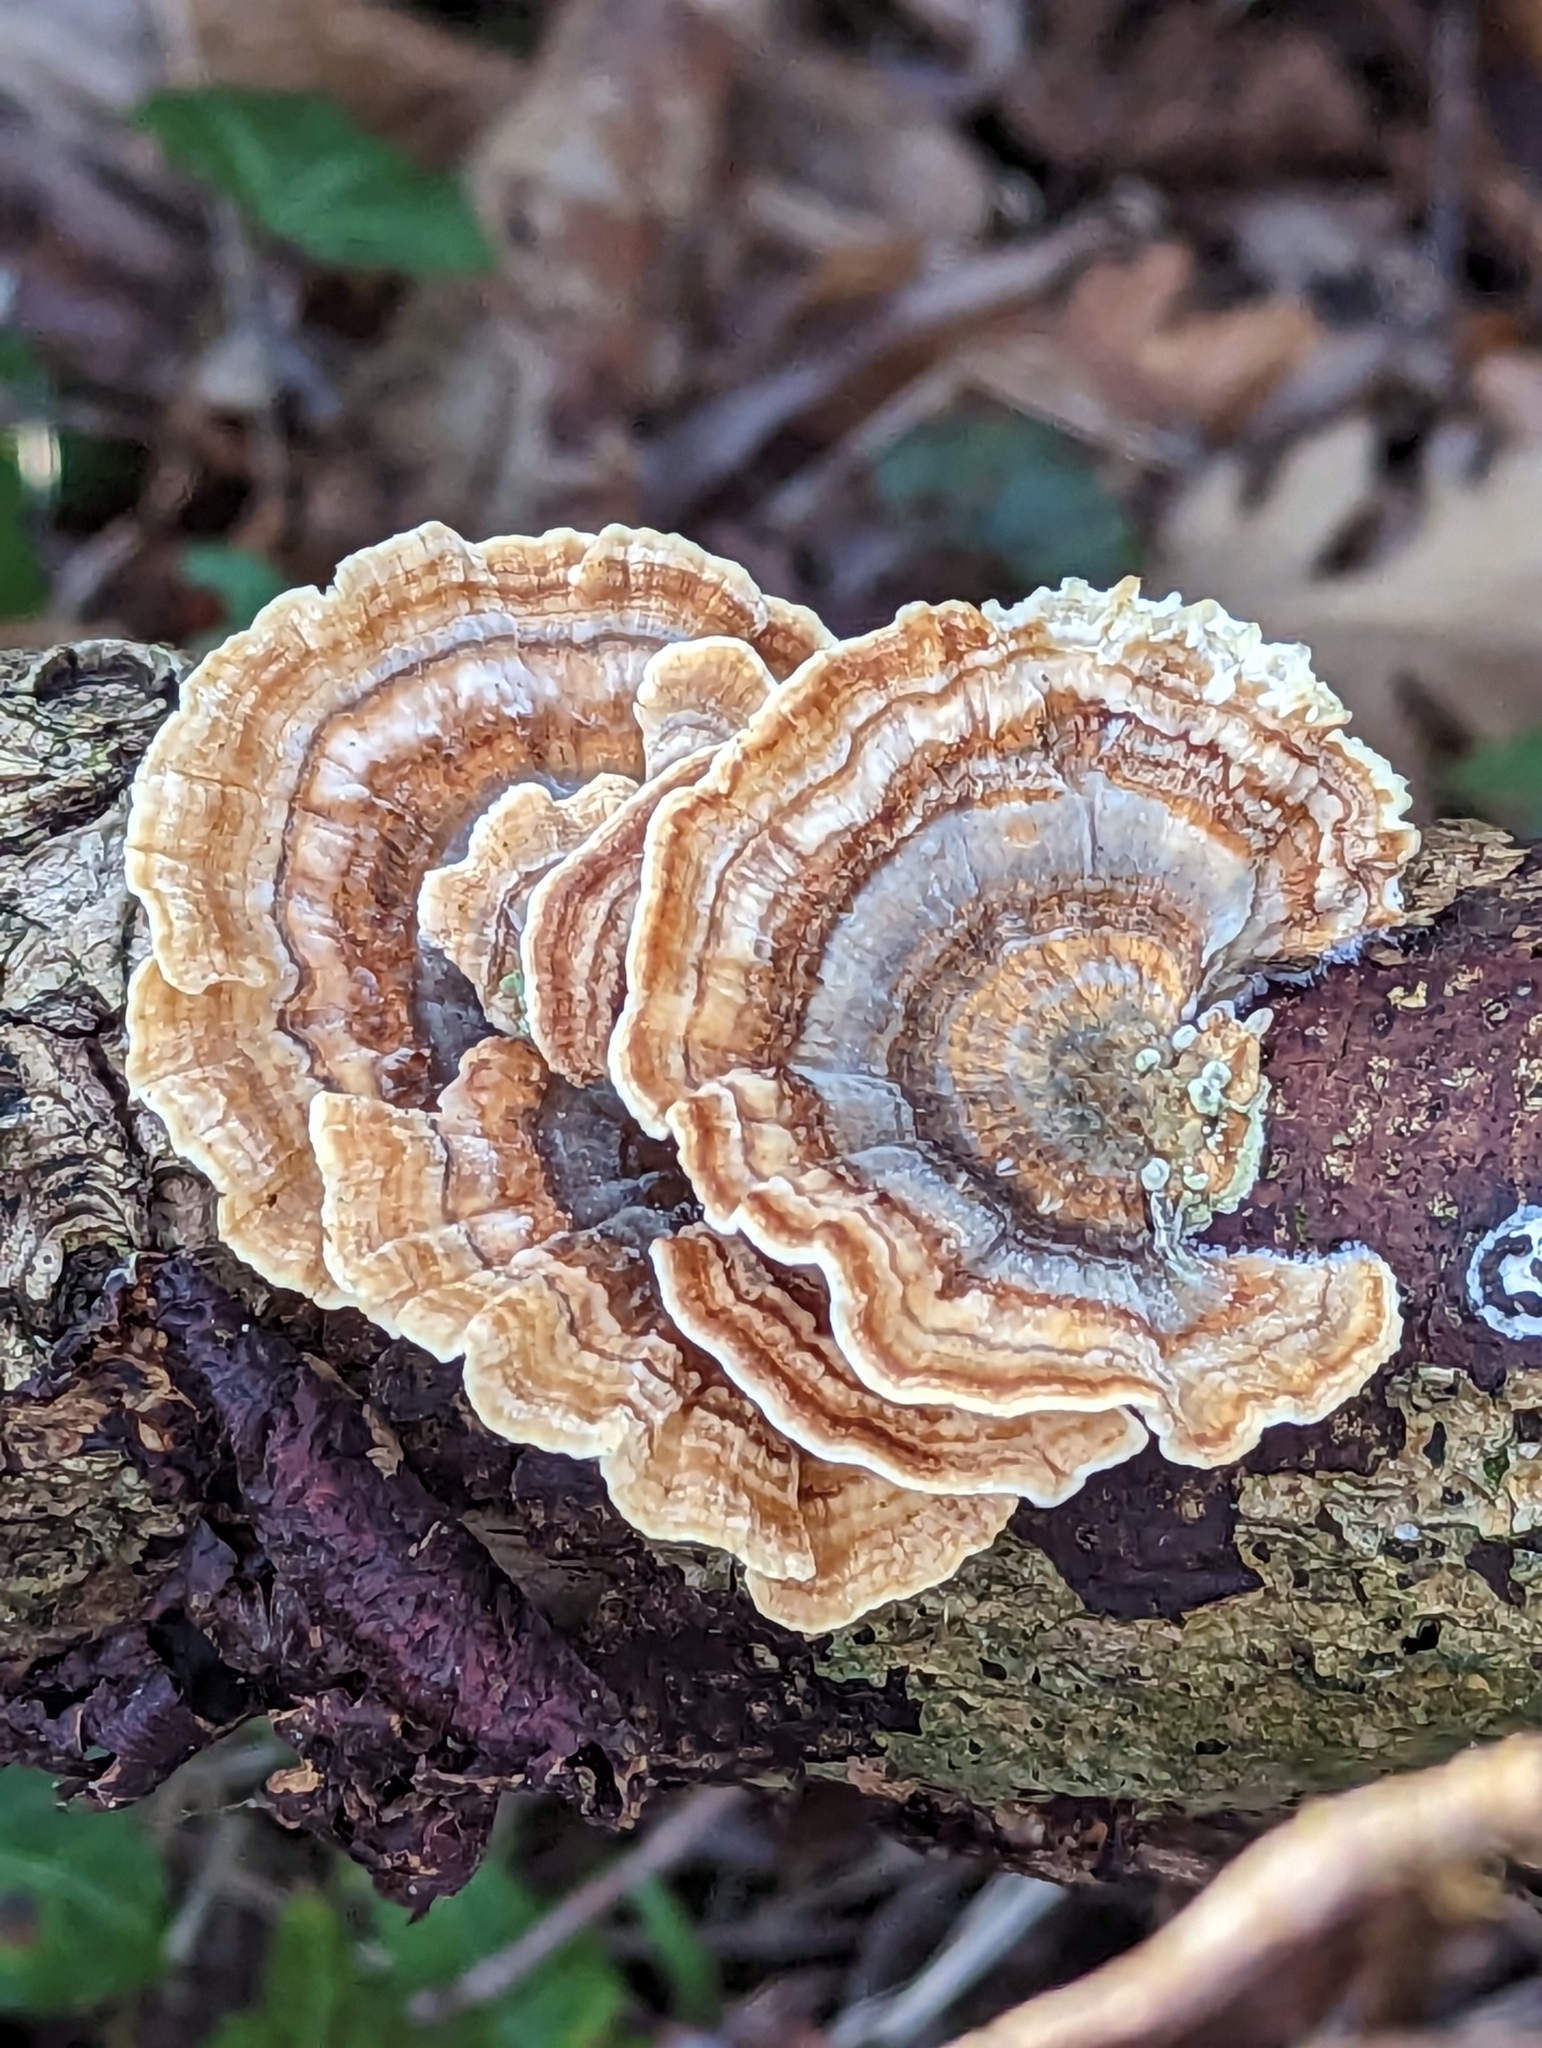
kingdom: Fungi
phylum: Basidiomycota
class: Agaricomycetes
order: Polyporales
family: Polyporaceae
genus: Trametes
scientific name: Trametes versicolor
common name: Turkeytail
